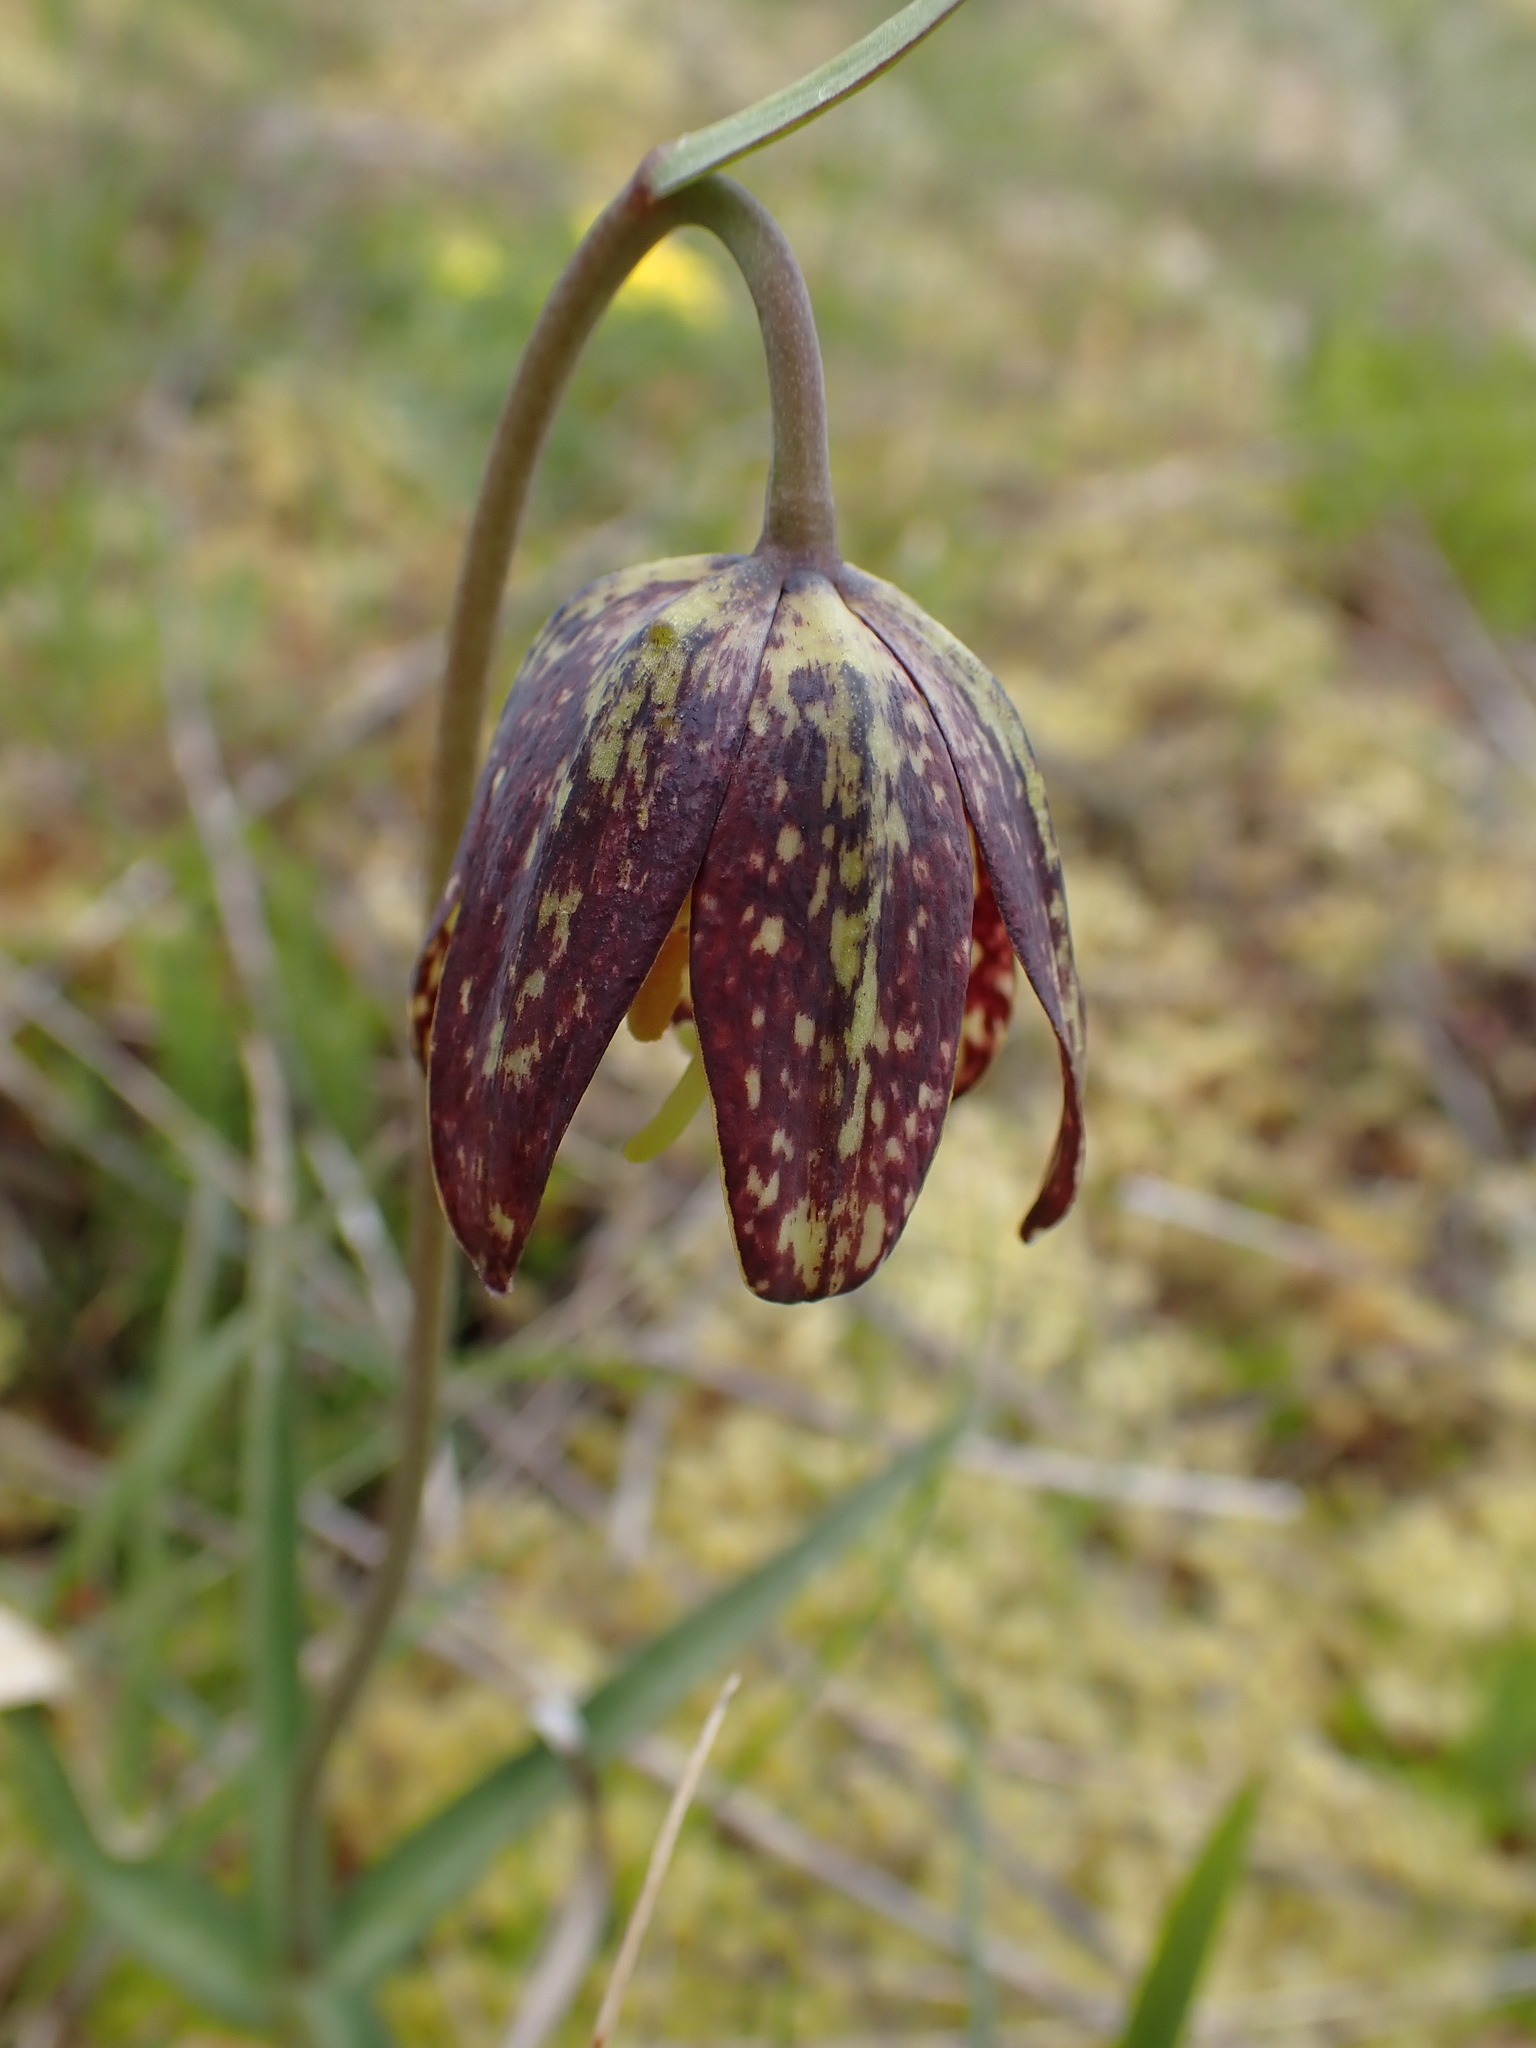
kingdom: Plantae
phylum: Tracheophyta
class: Liliopsida
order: Liliales
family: Liliaceae
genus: Fritillaria
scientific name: Fritillaria affinis
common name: Ojai fritillary
